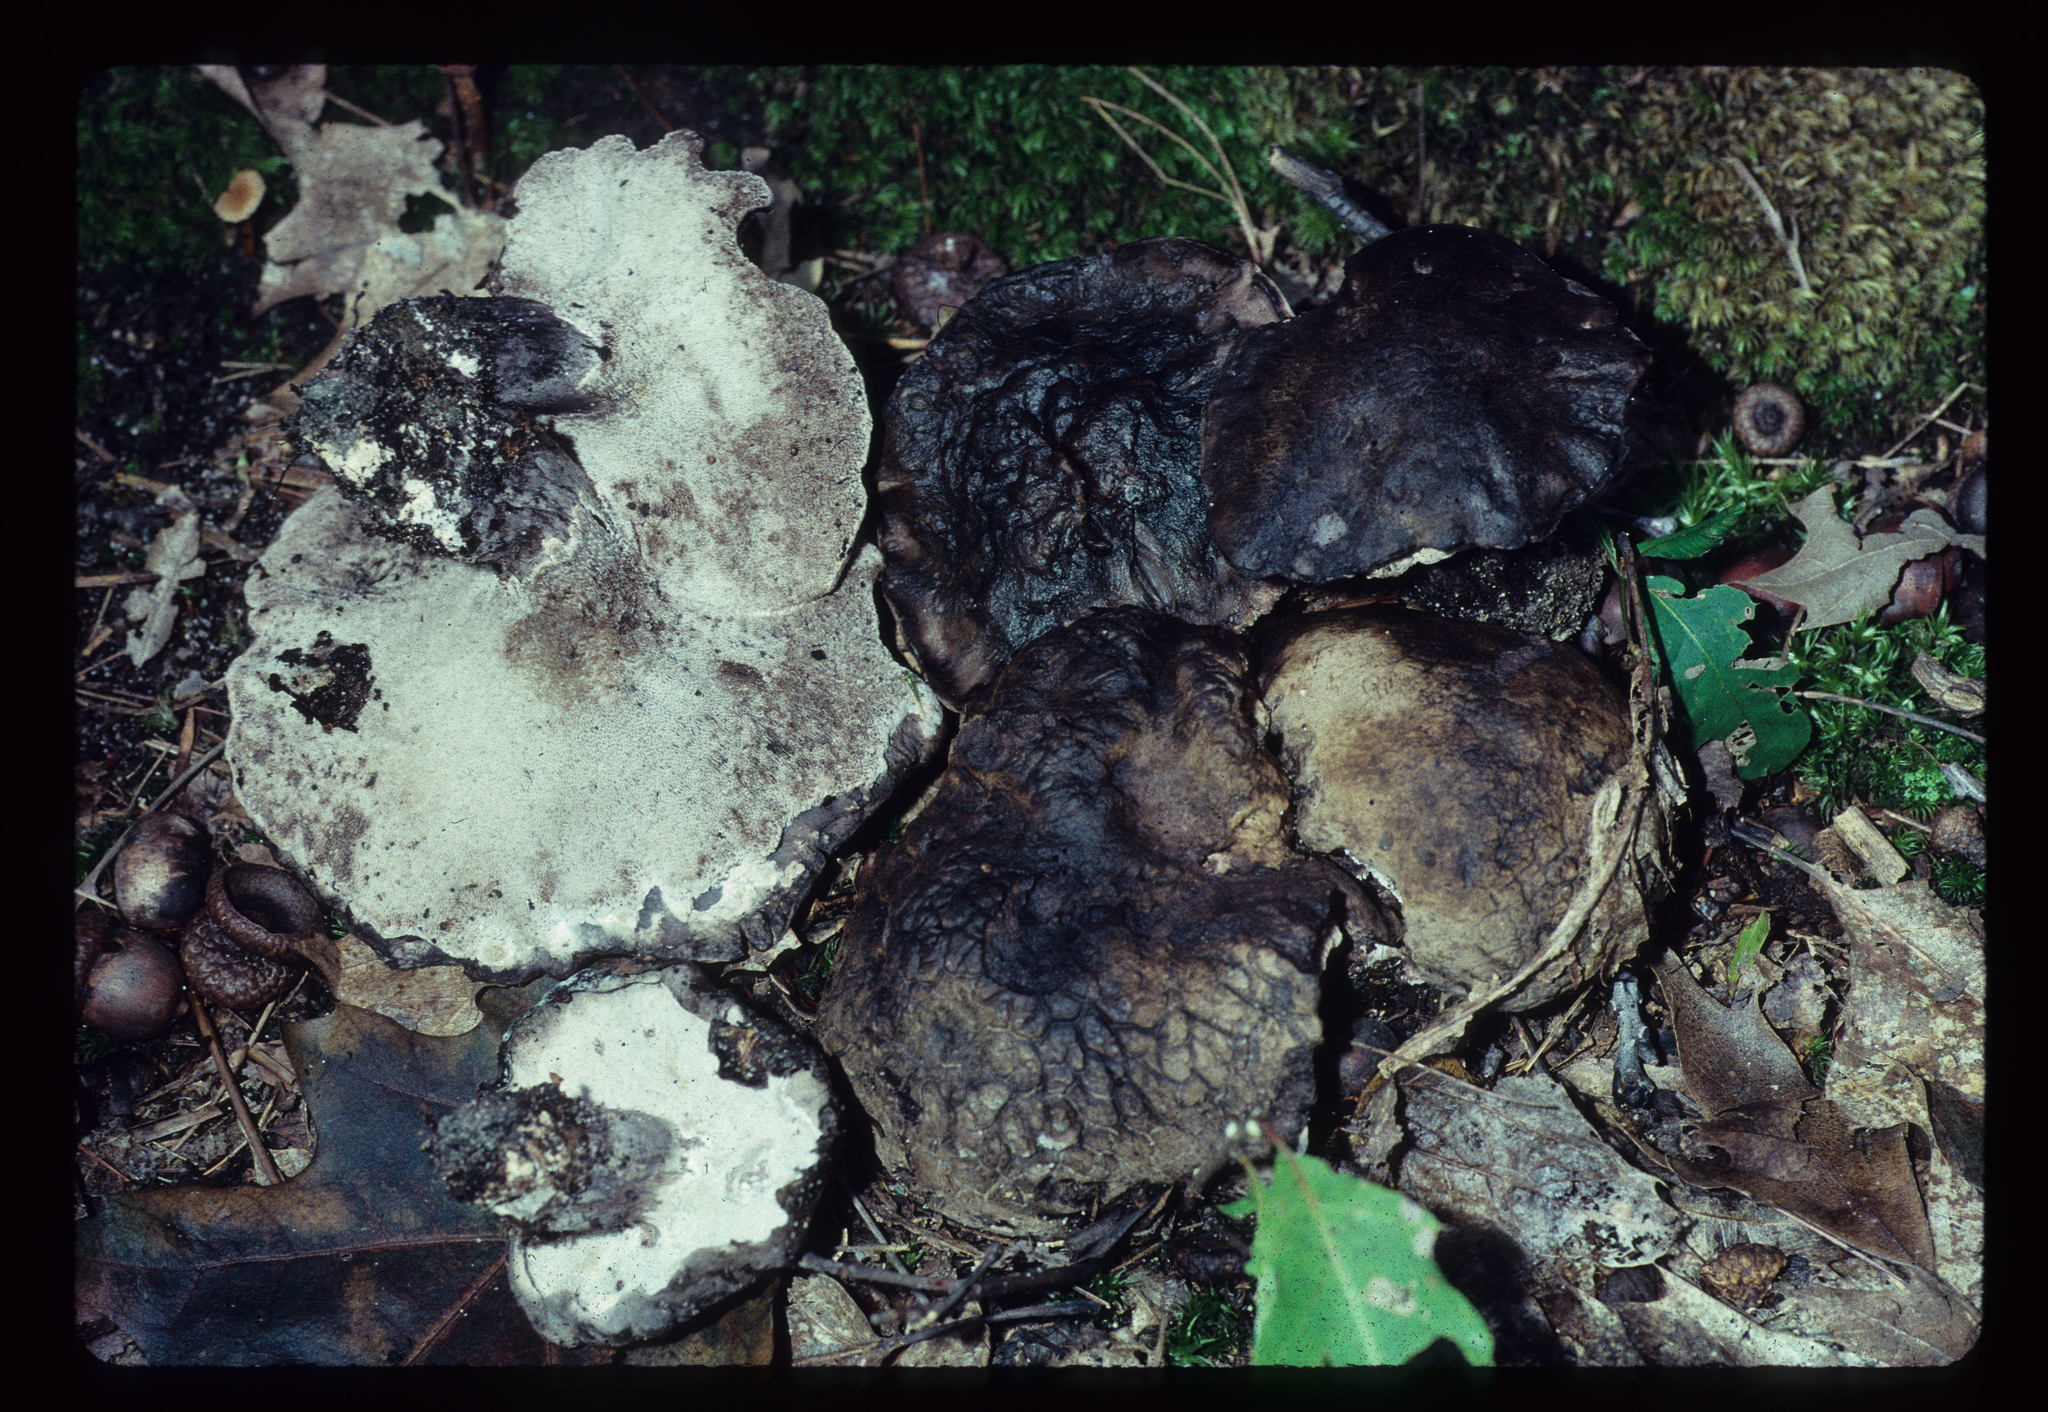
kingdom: Fungi
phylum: Basidiomycota
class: Agaricomycetes
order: Thelephorales
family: Bankeraceae
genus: Boletopsis
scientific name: Boletopsis grisea
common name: Grey falsebolete
